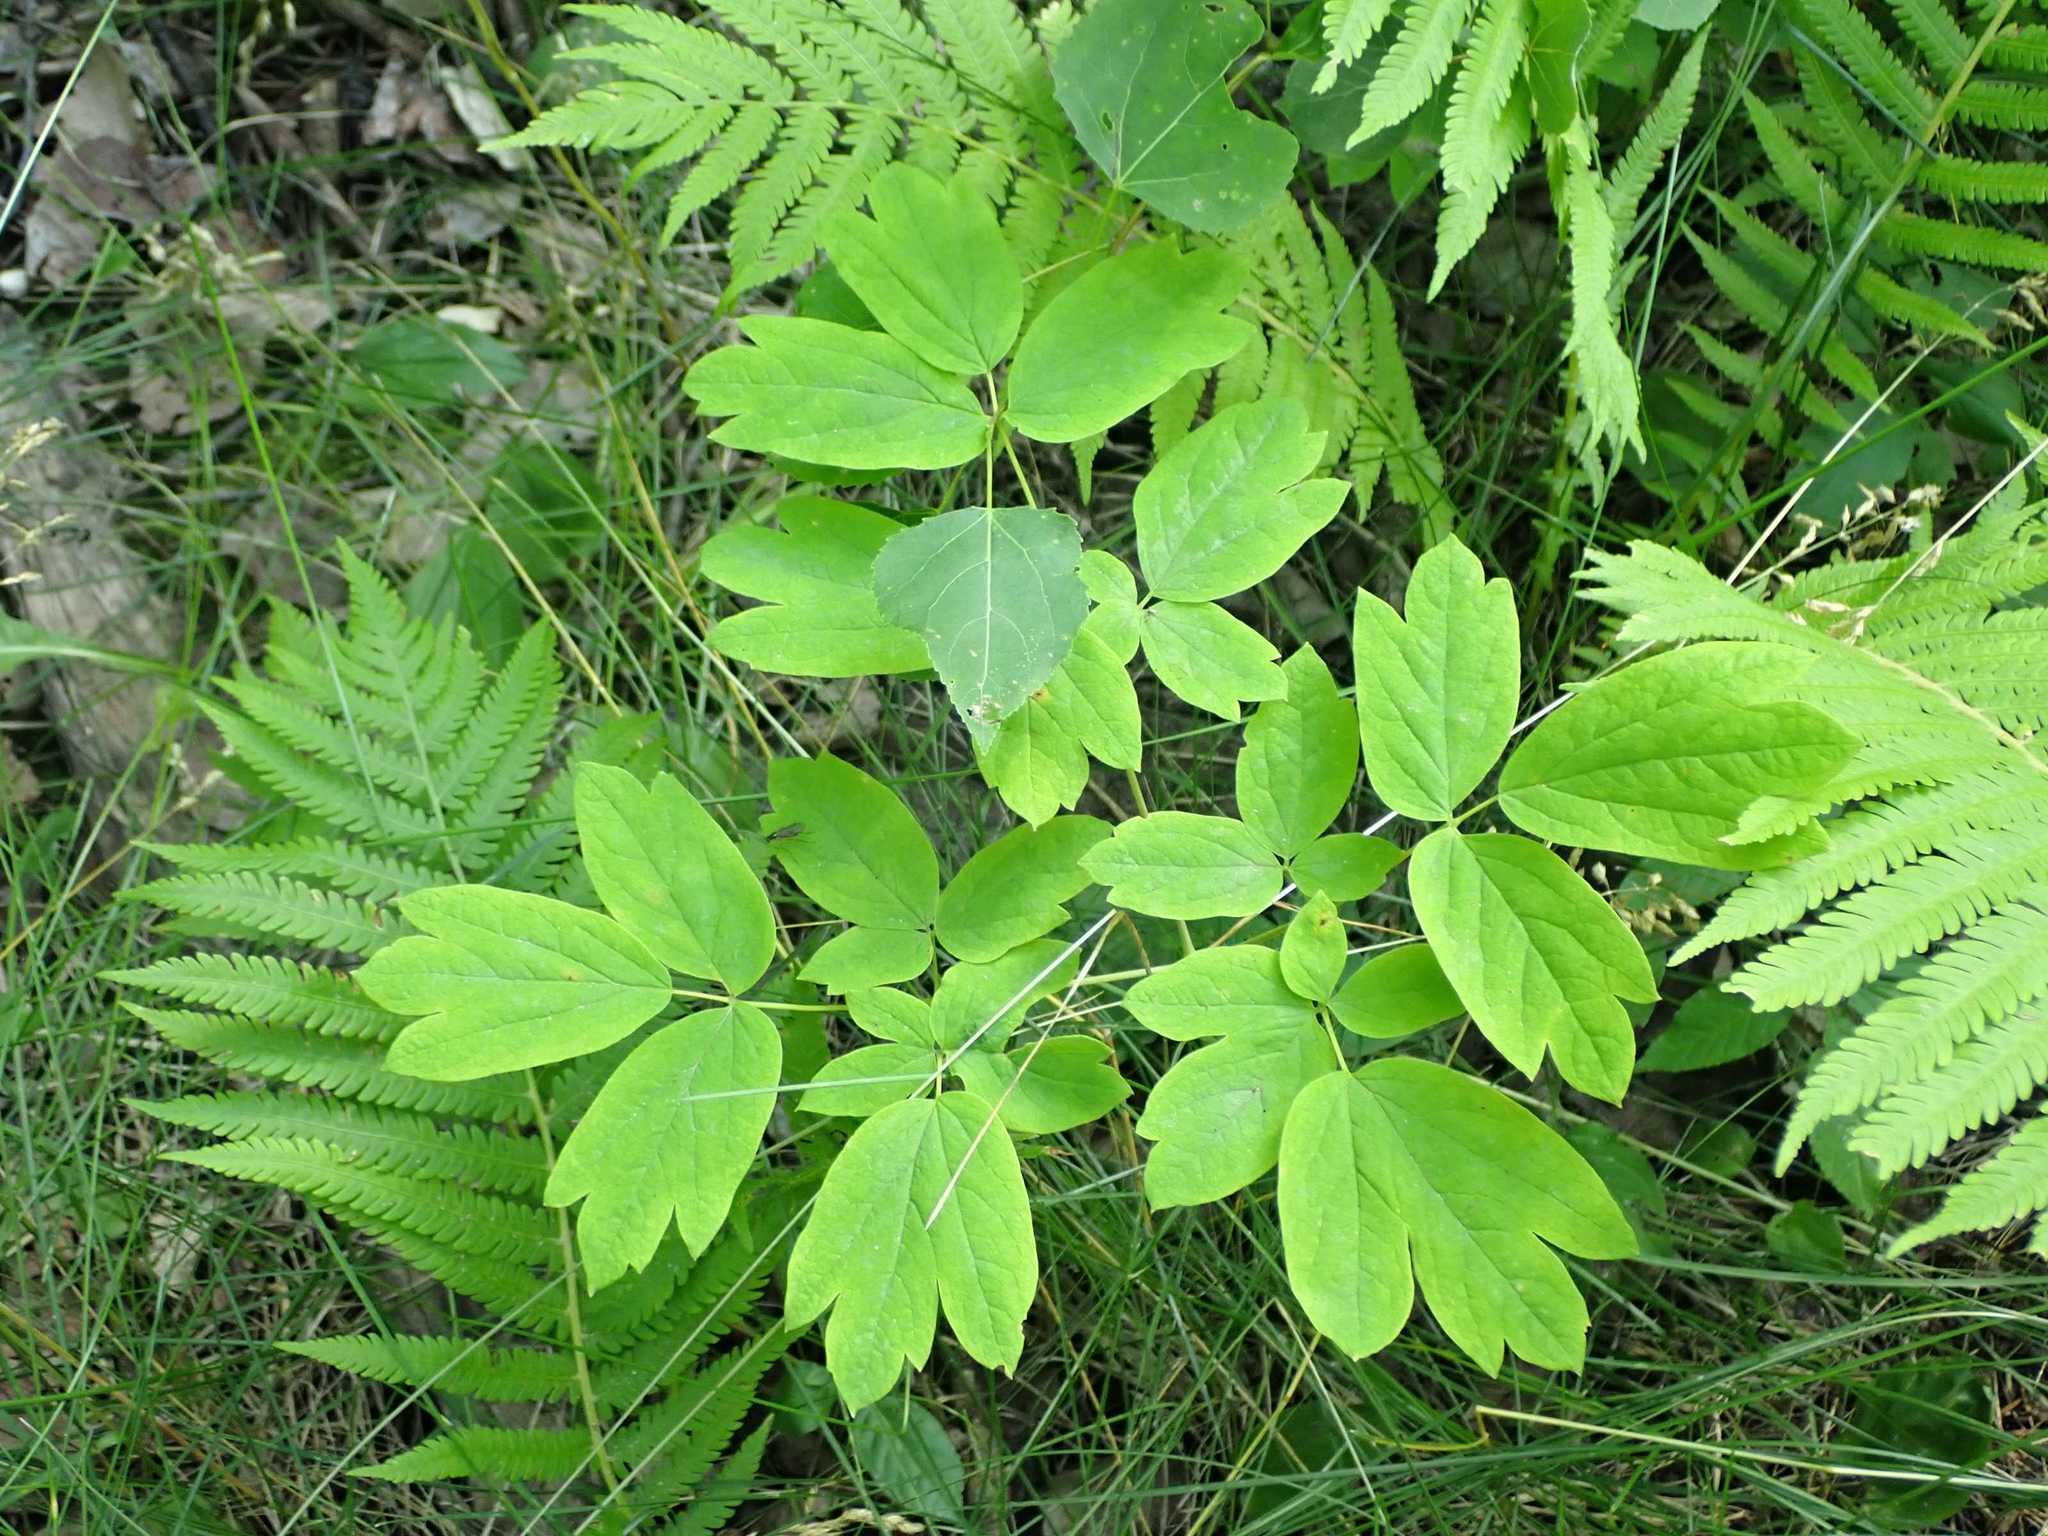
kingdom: Plantae
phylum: Tracheophyta
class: Magnoliopsida
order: Ranunculales
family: Berberidaceae
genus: Caulophyllum
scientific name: Caulophyllum thalictroides
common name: Blue cohosh
